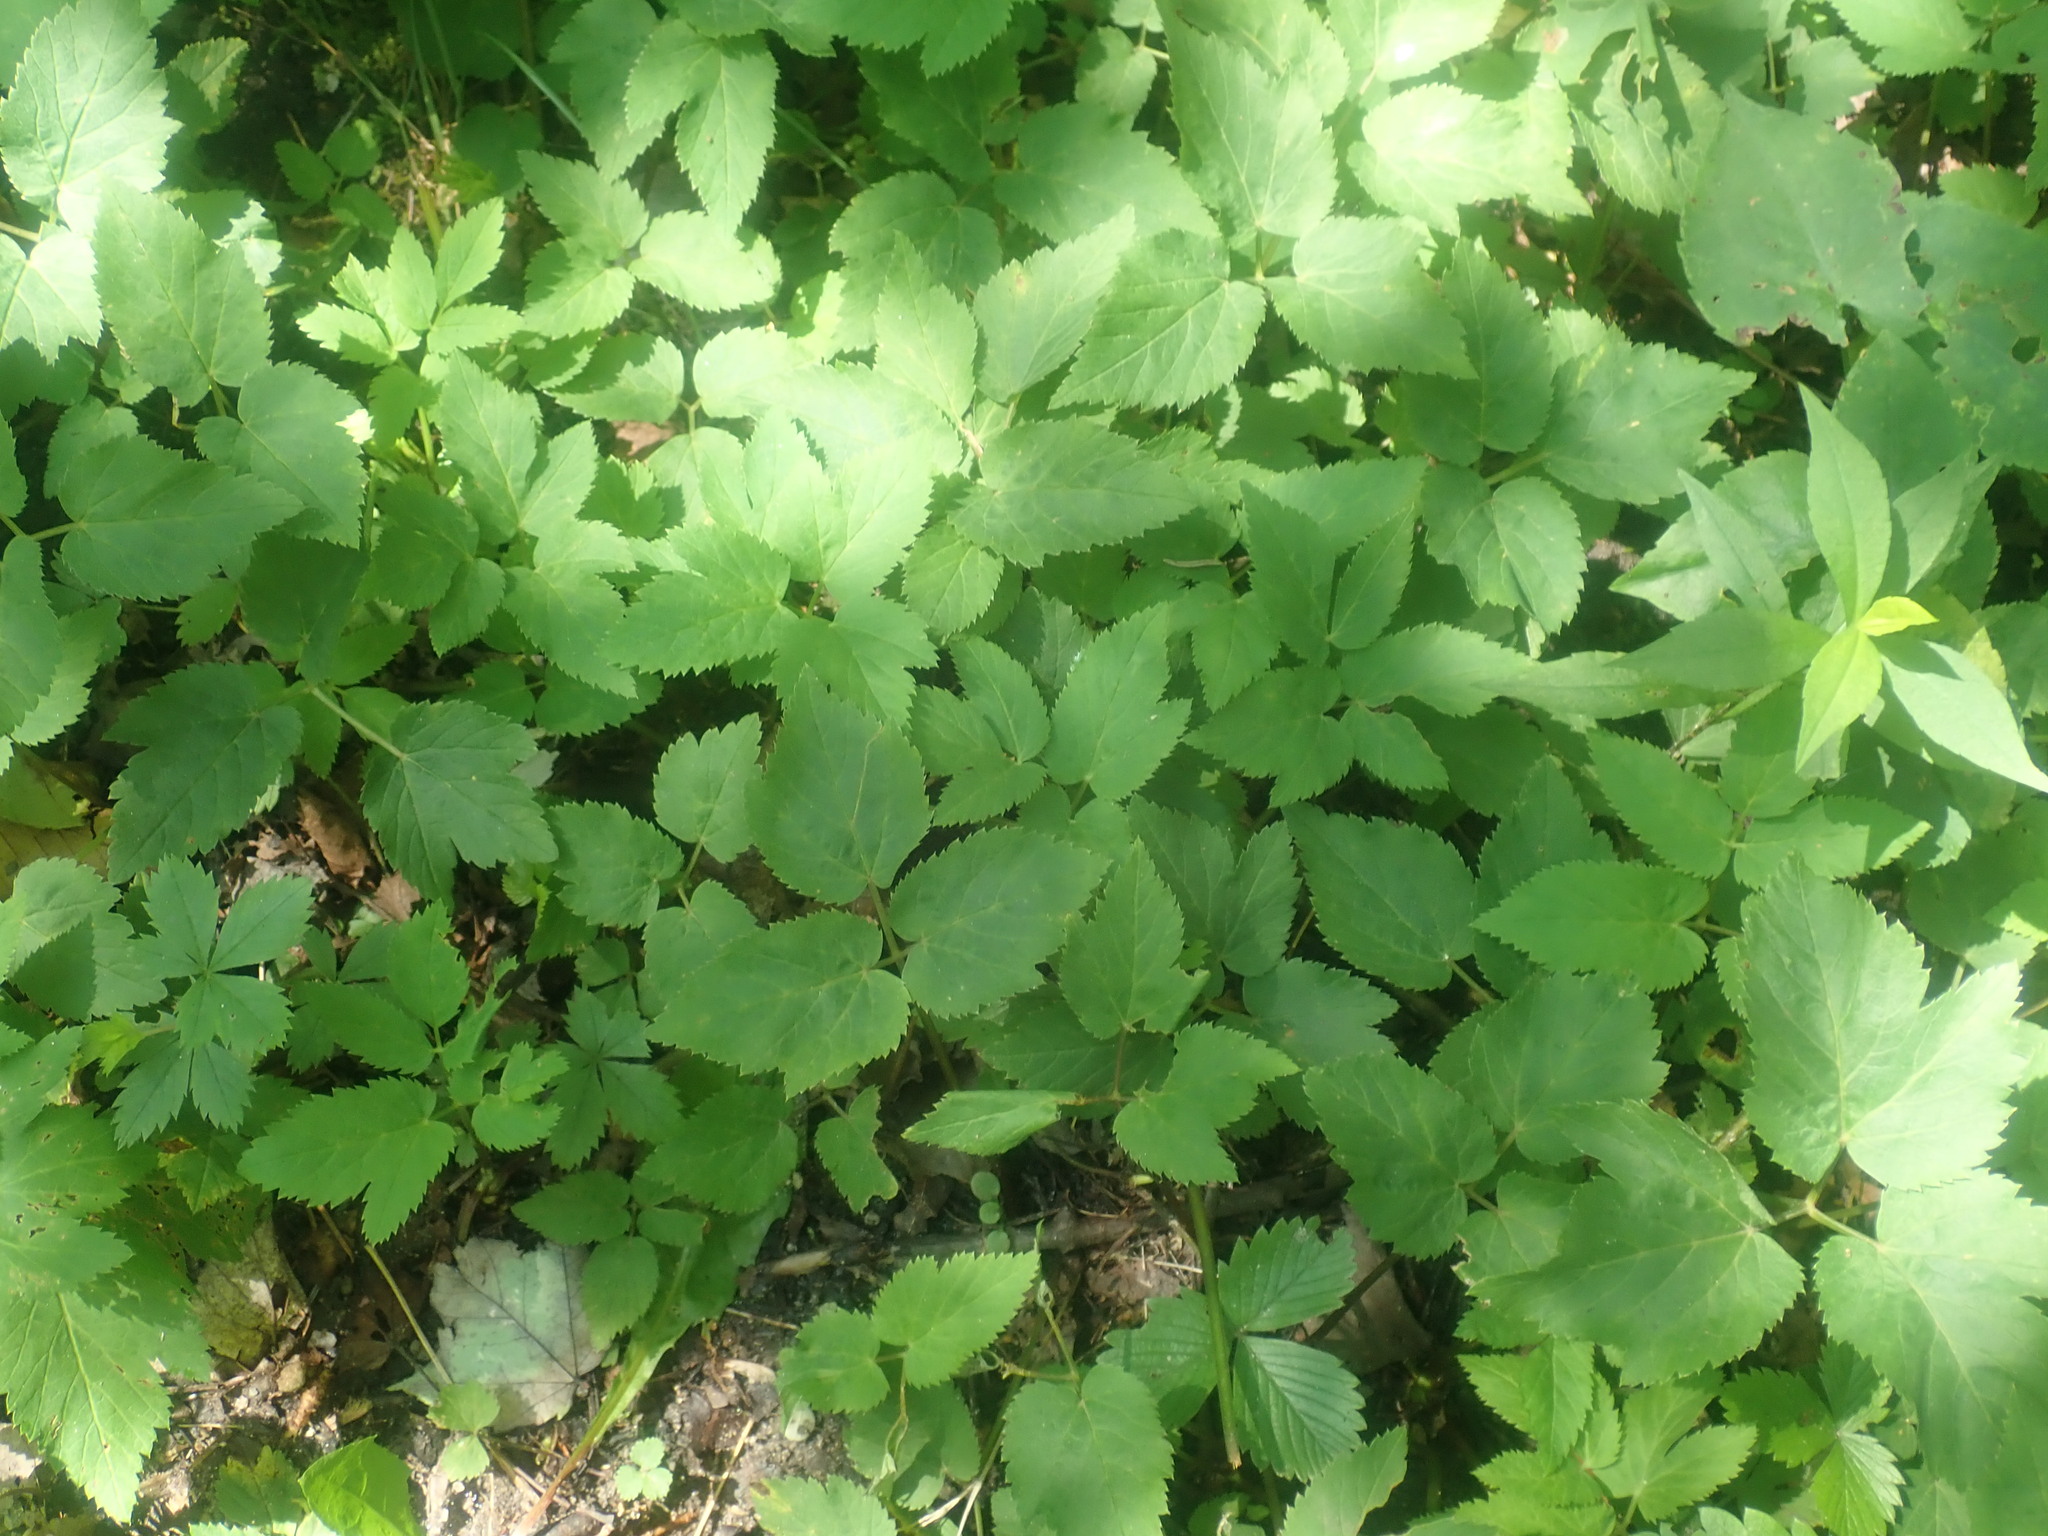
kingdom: Plantae
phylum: Tracheophyta
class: Magnoliopsida
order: Apiales
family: Apiaceae
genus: Aegopodium
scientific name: Aegopodium podagraria
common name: Ground-elder
